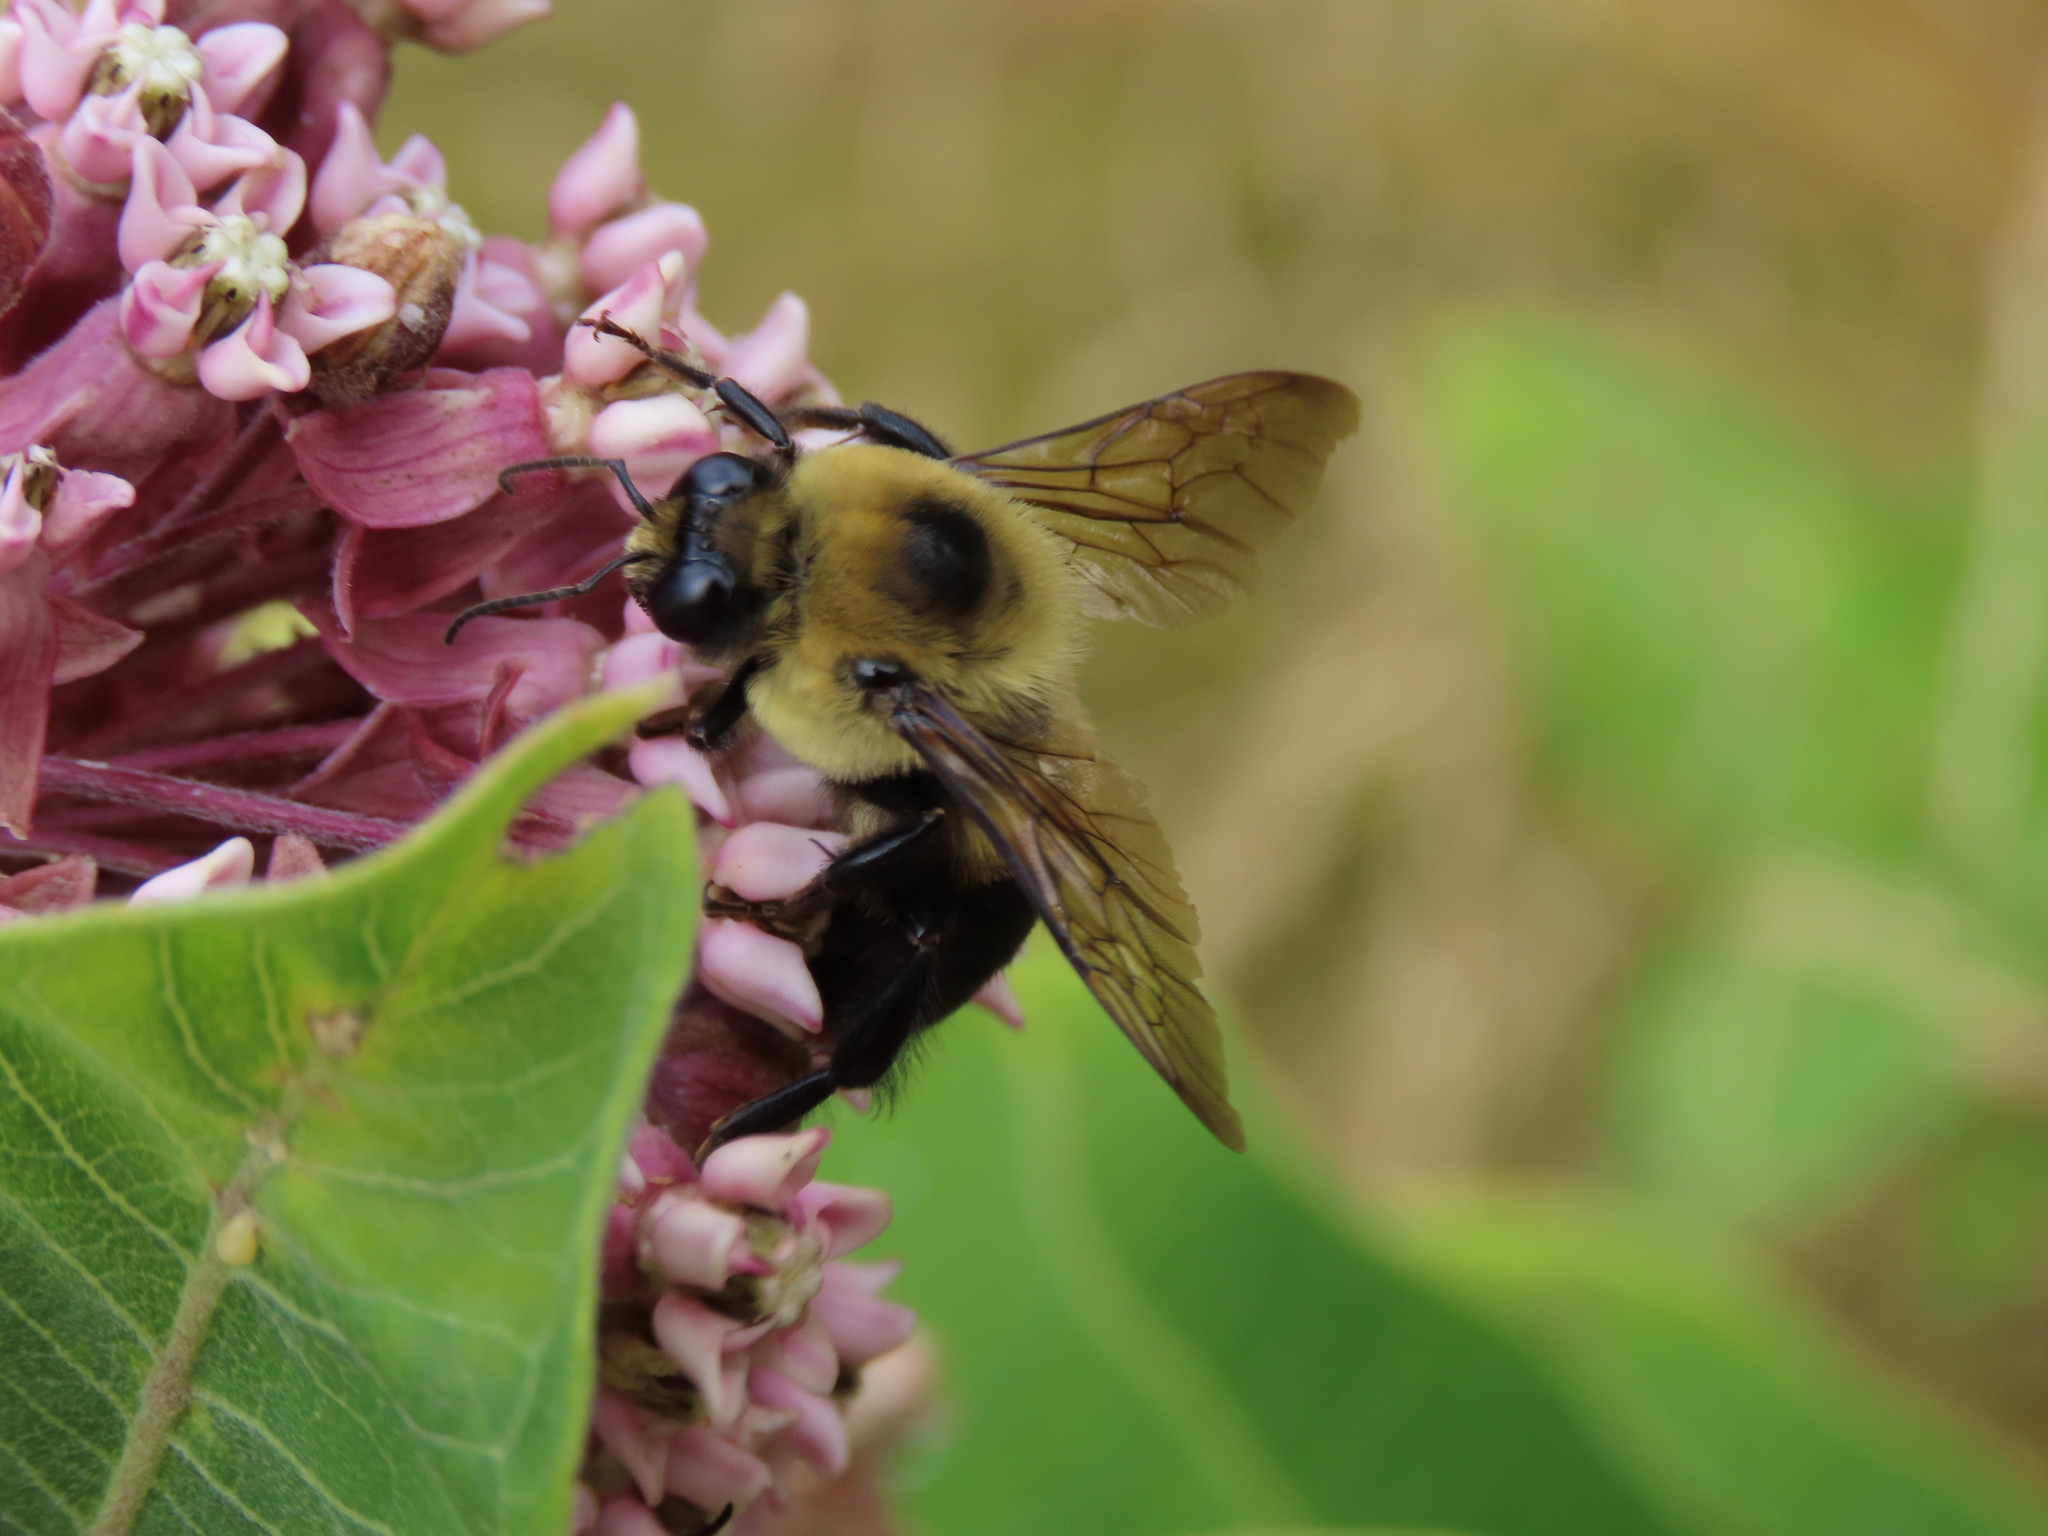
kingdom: Animalia
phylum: Arthropoda
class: Insecta
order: Hymenoptera
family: Apidae
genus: Bombus
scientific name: Bombus griseocollis
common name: Brown-belted bumble bee
